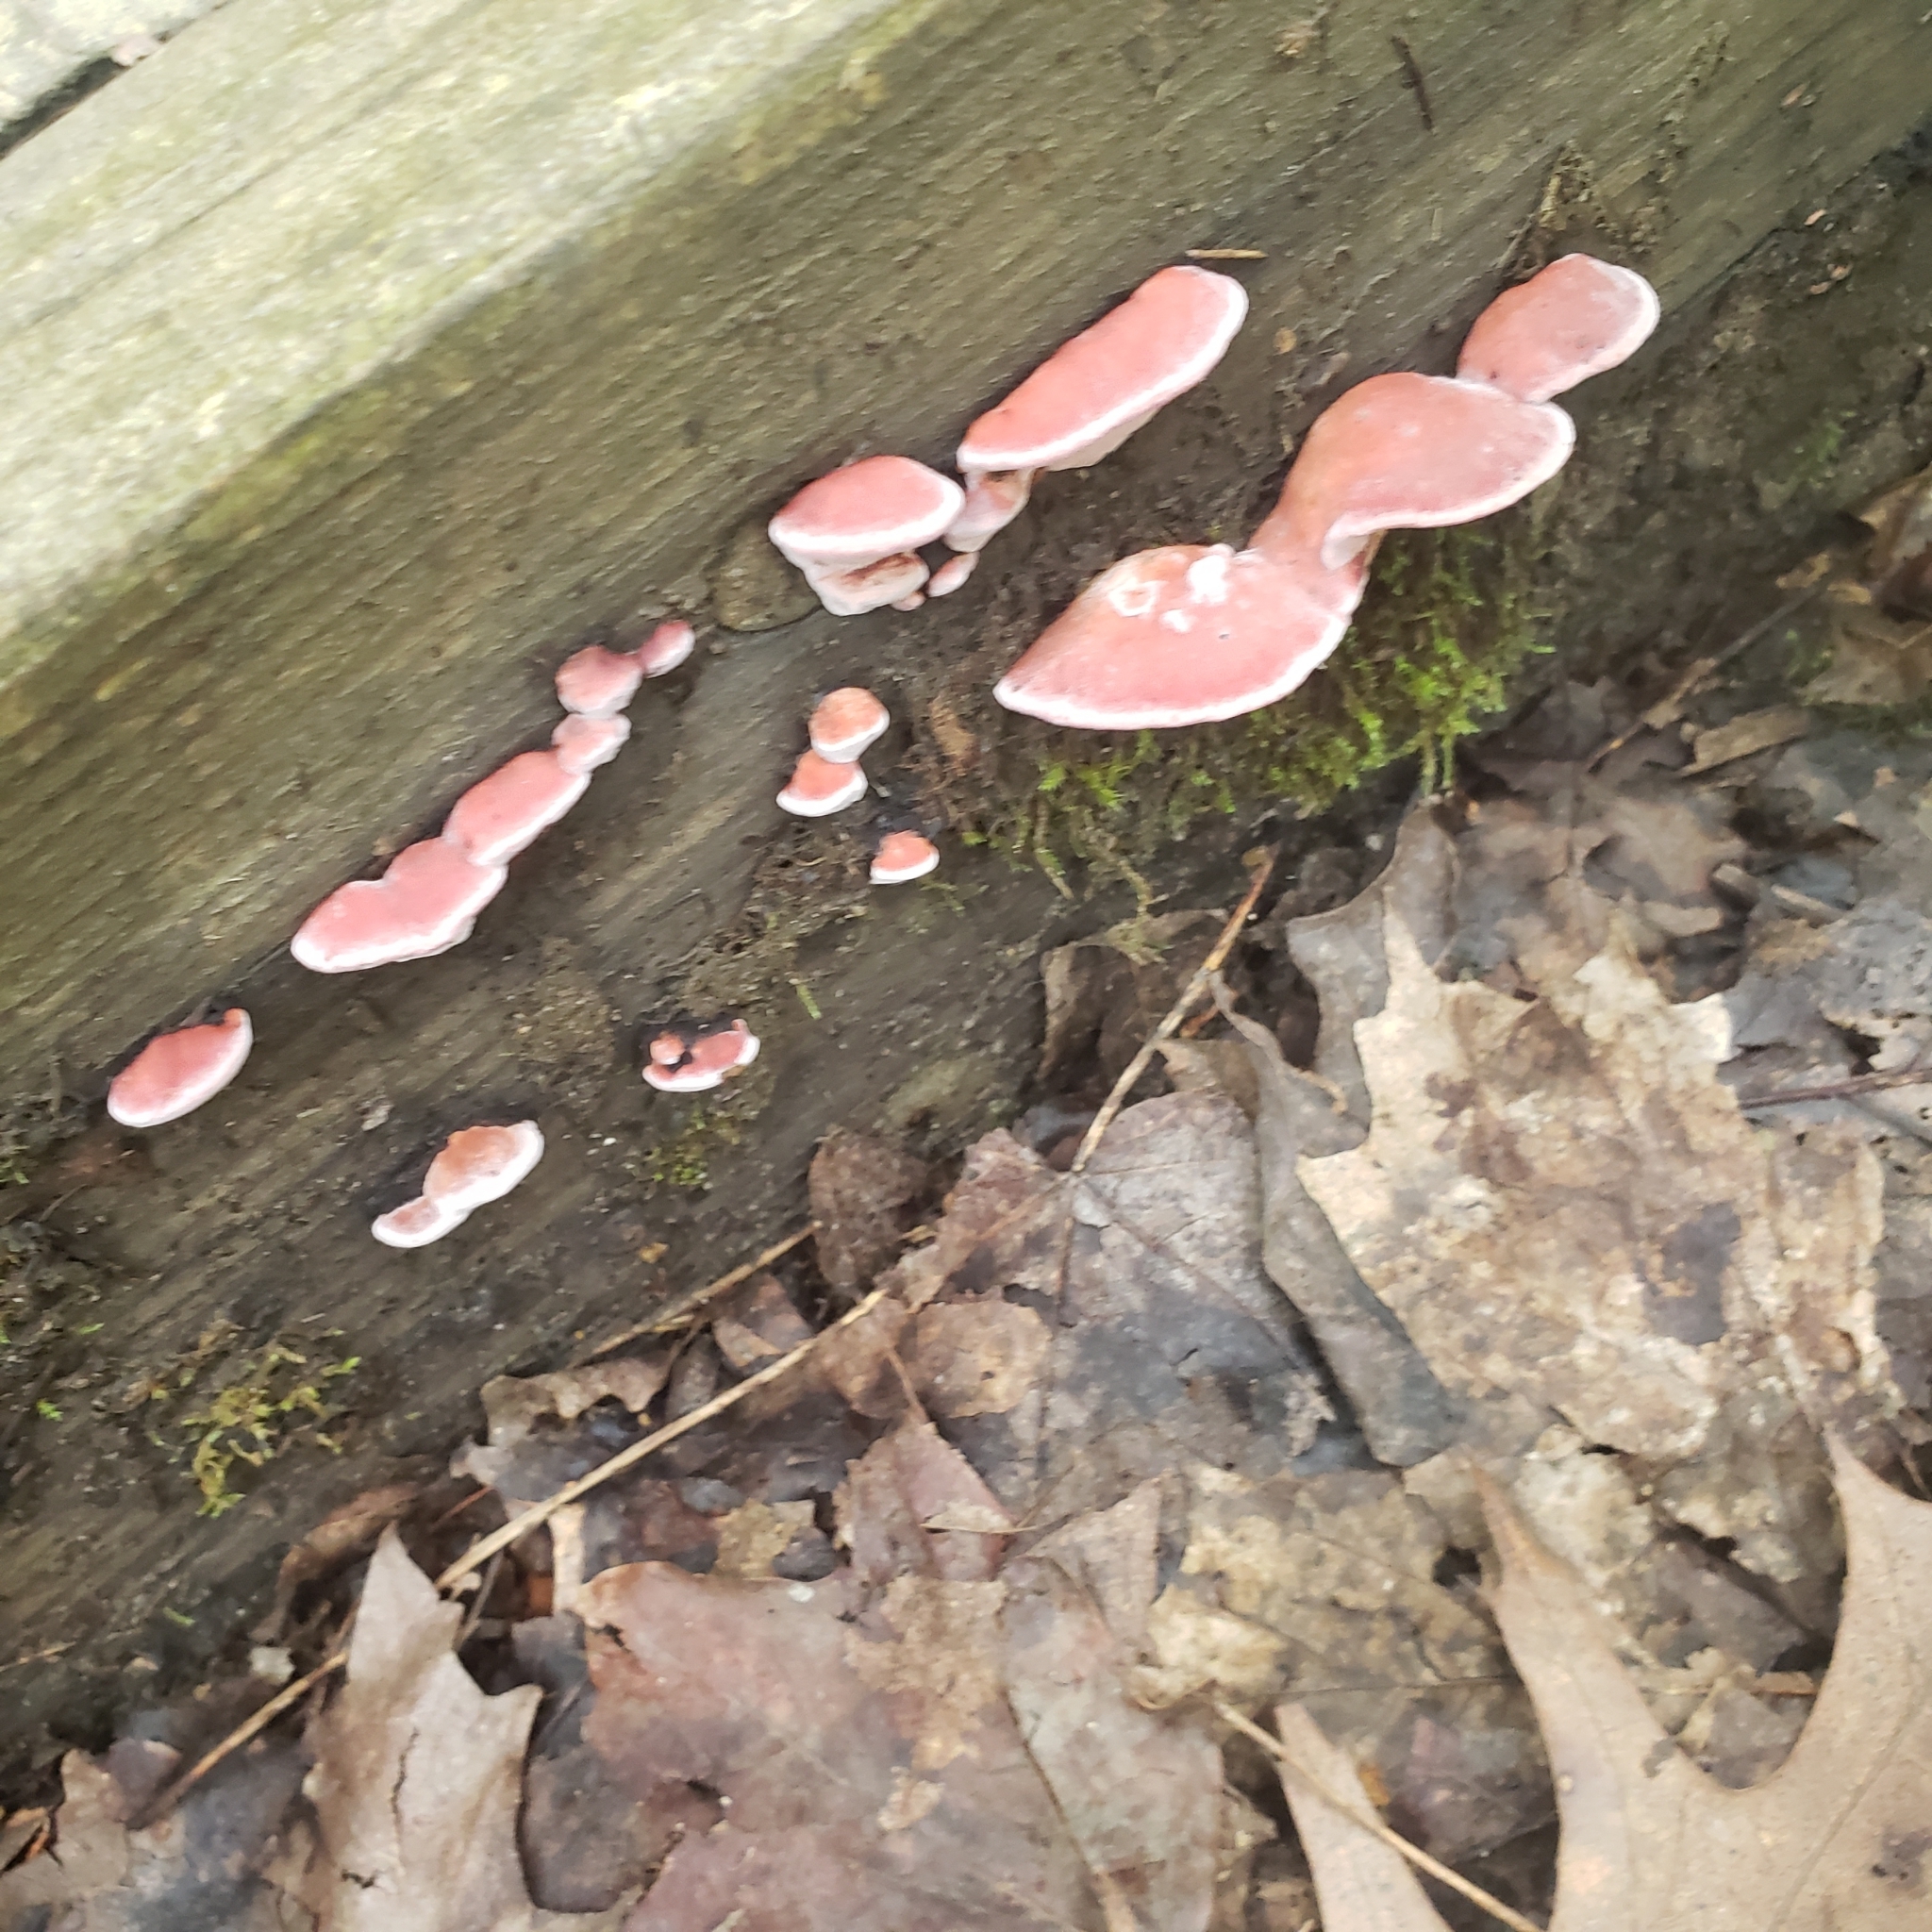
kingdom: Fungi
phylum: Basidiomycota
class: Agaricomycetes
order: Polyporales
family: Fomitopsidaceae
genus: Rhodofomes
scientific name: Rhodofomes cajanderi
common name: Rosy conk
